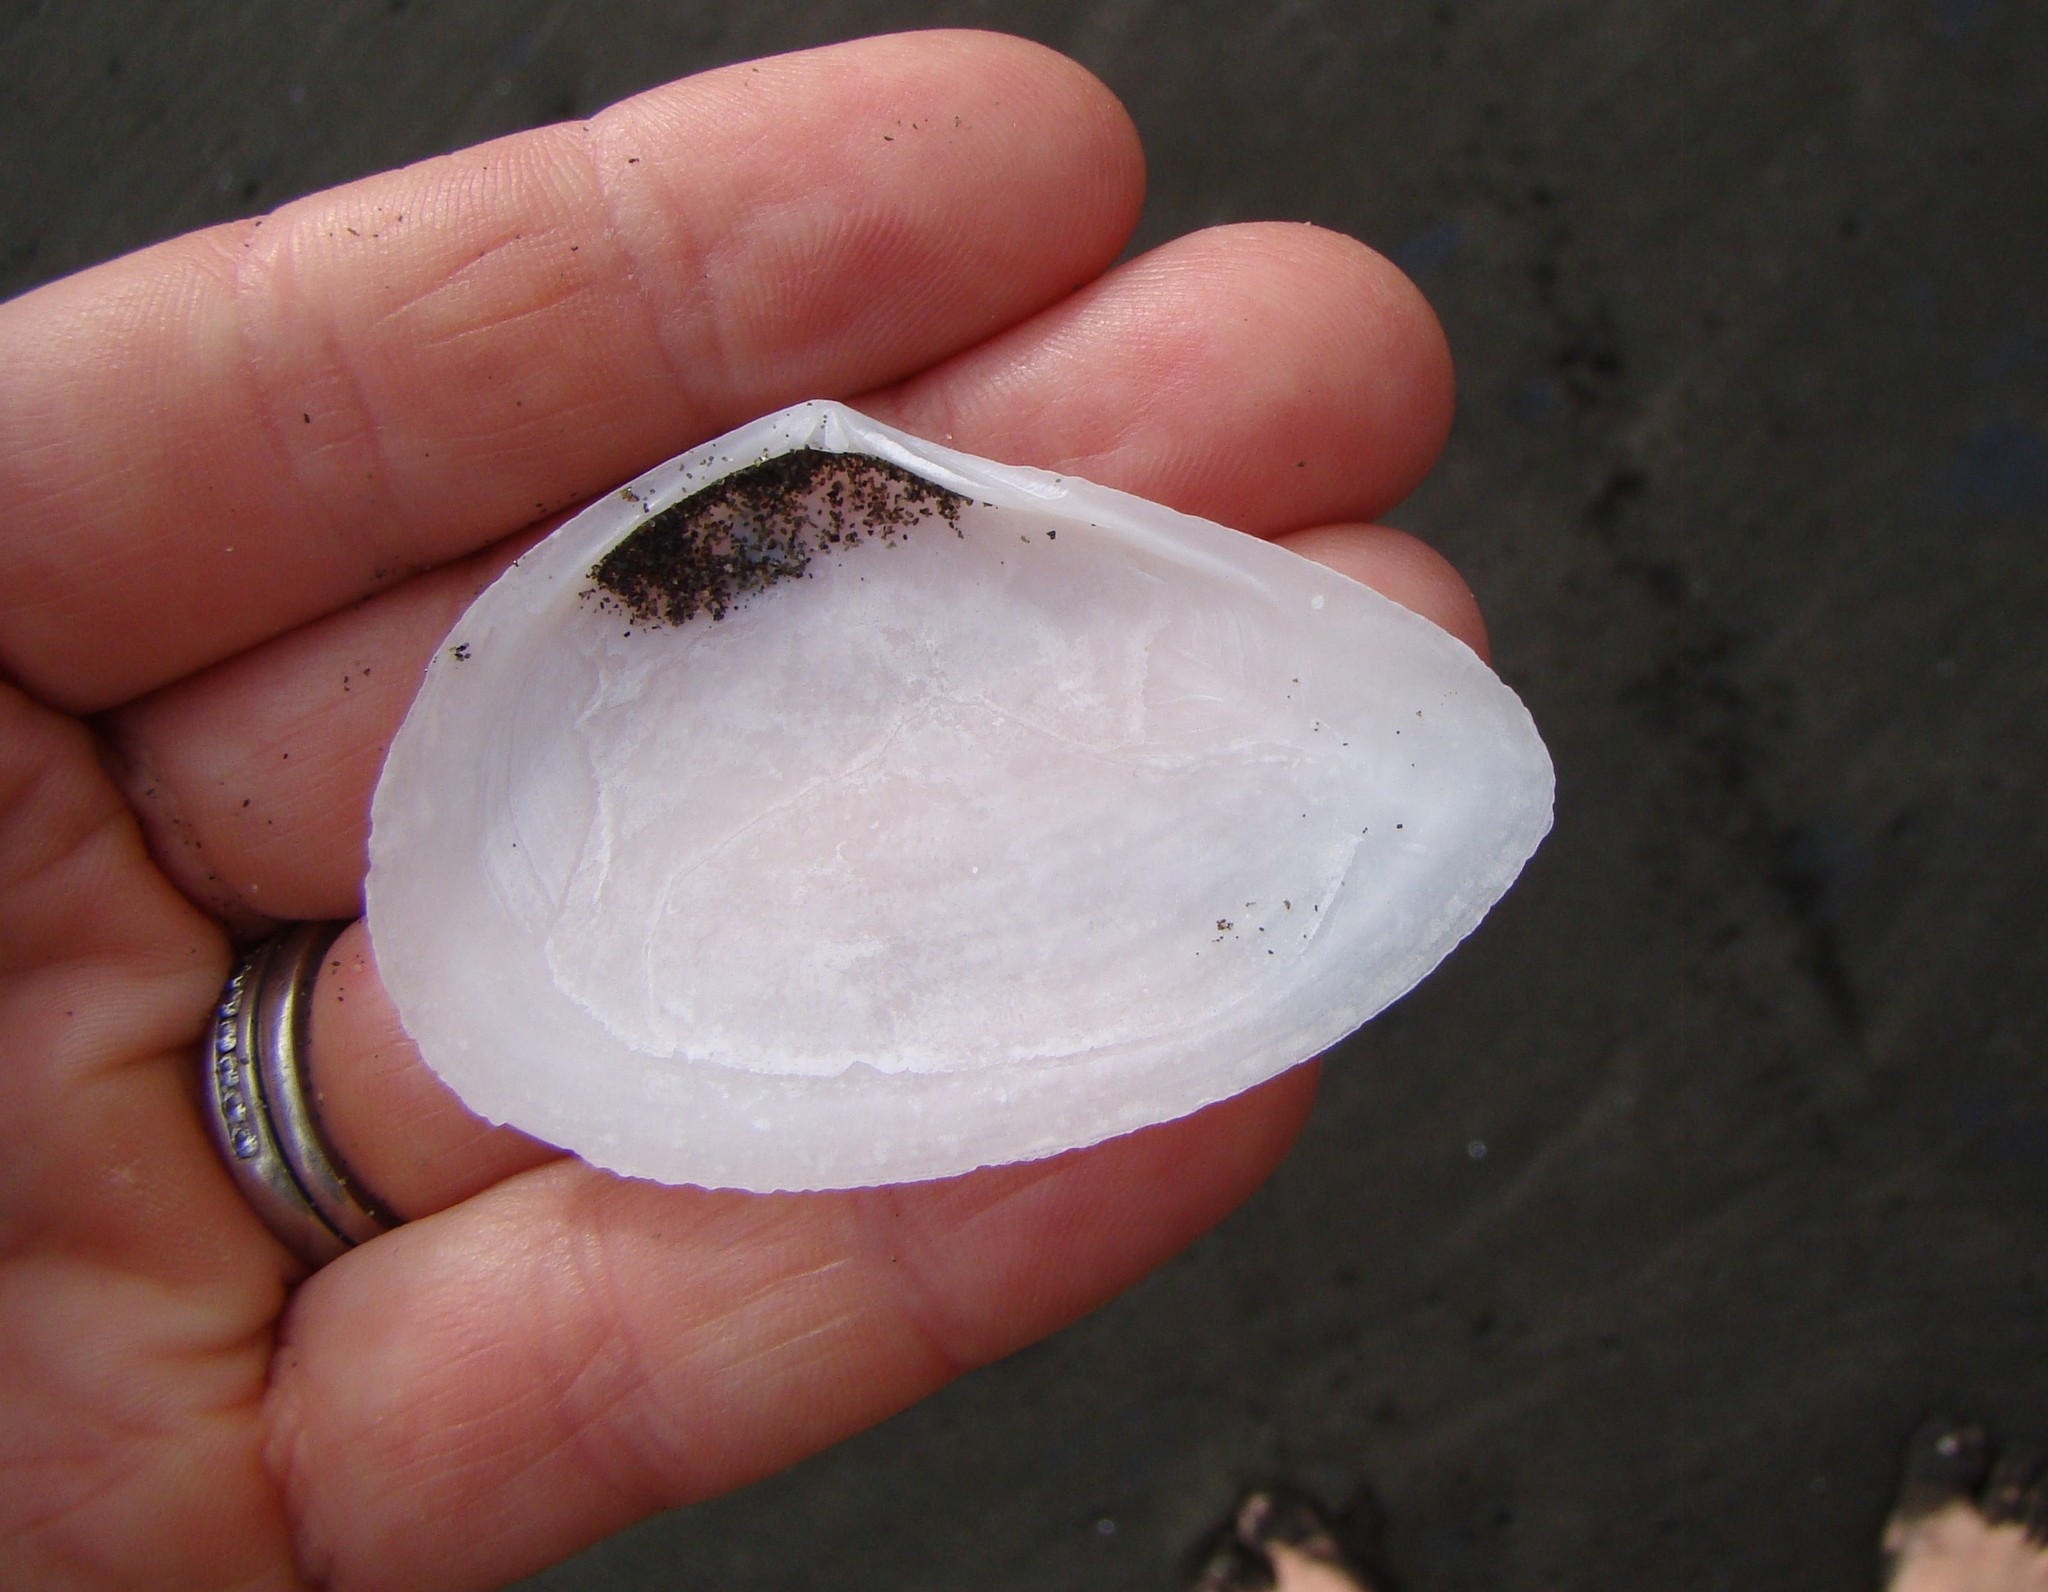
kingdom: Animalia
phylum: Mollusca
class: Bivalvia
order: Cardiida
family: Tellinidae
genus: Bartschicoma
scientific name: Bartschicoma gaimardi
